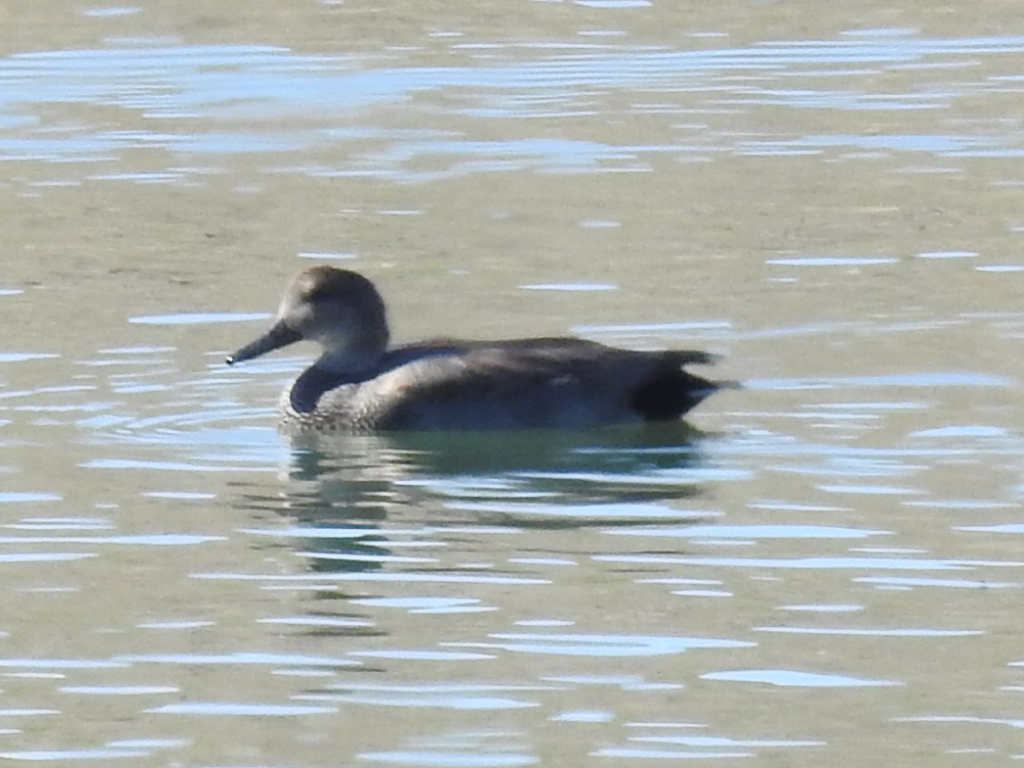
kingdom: Animalia
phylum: Chordata
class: Aves
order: Anseriformes
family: Anatidae
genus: Mareca
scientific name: Mareca strepera
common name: Gadwall
